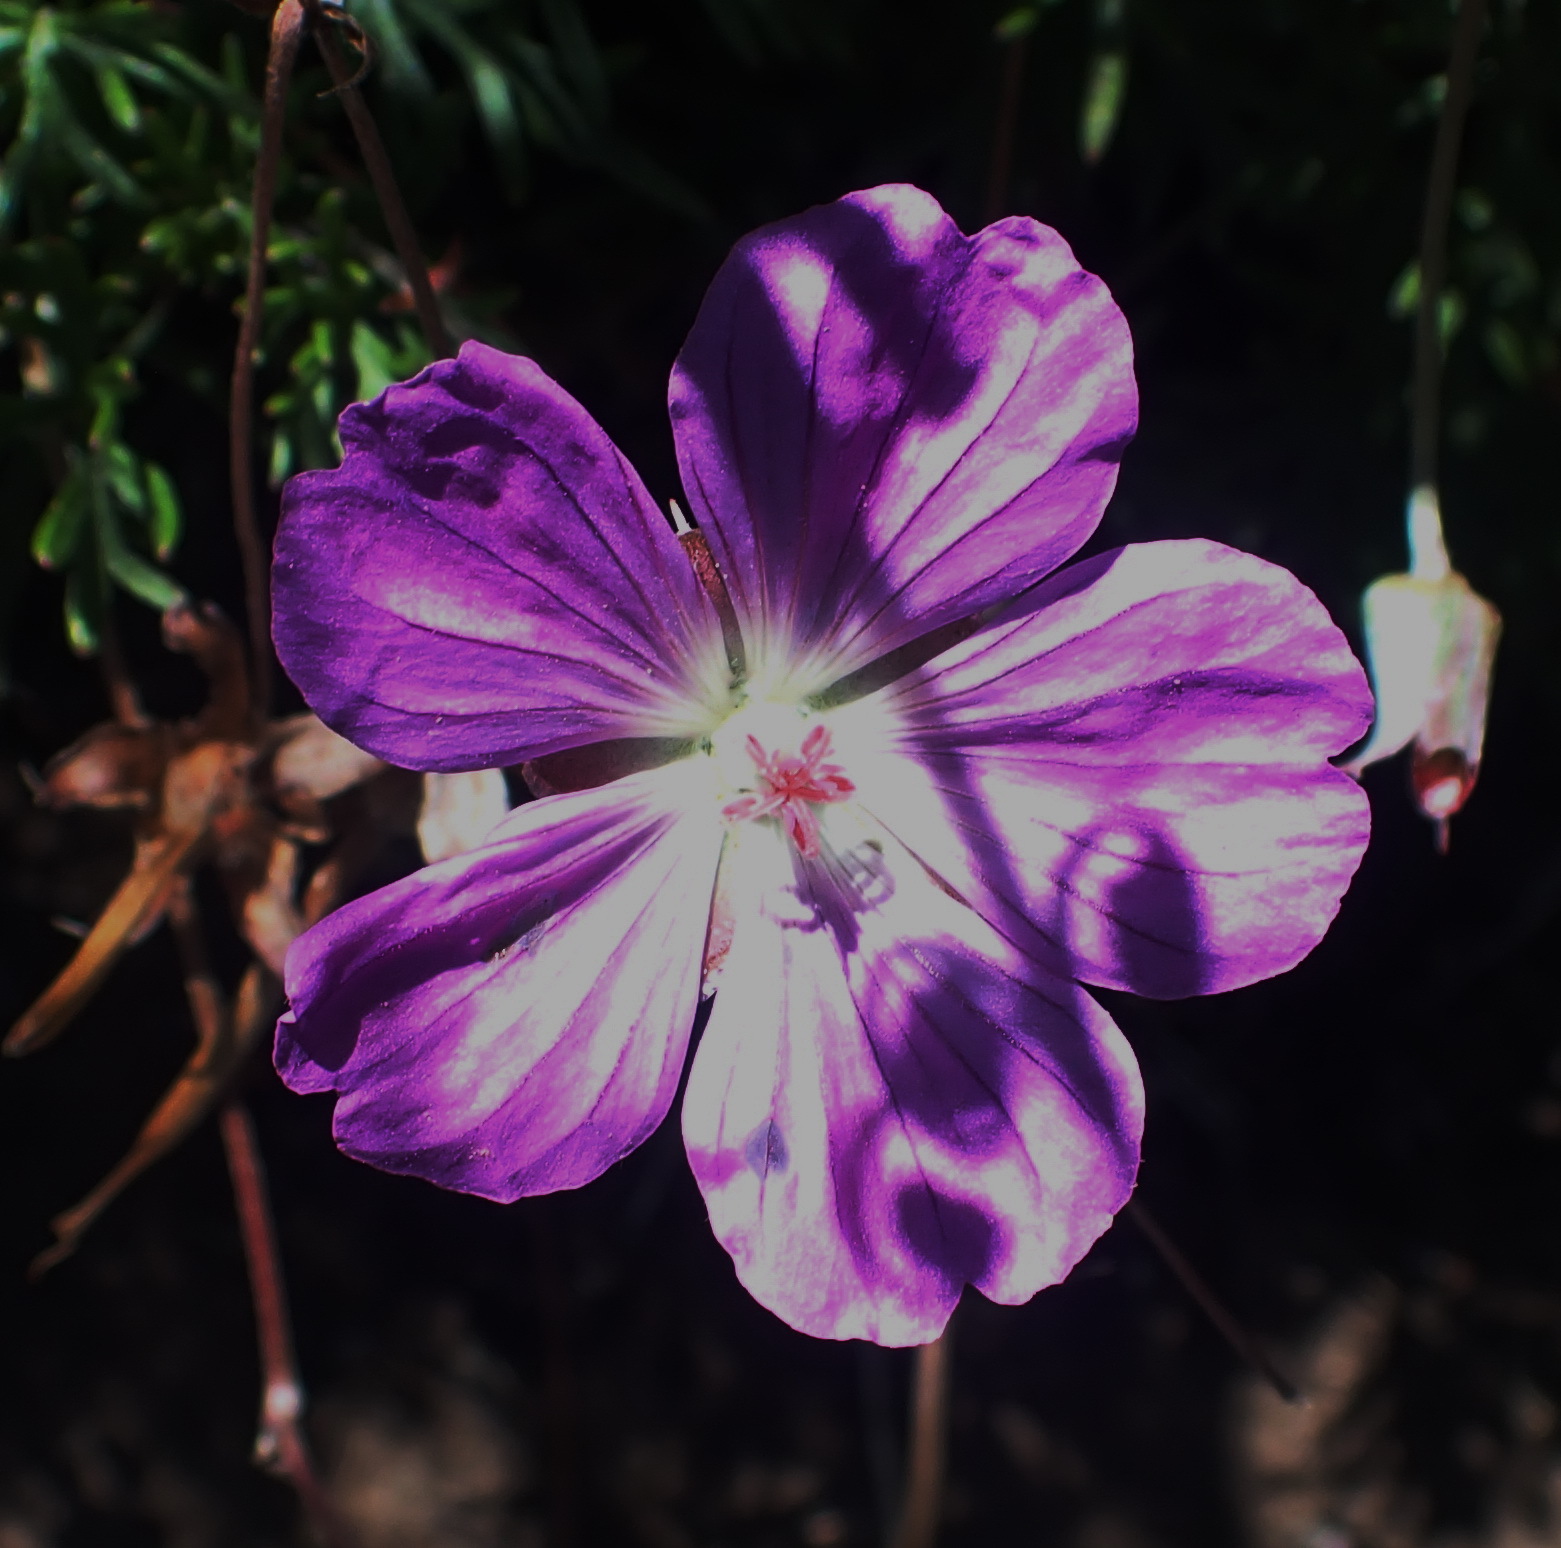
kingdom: Plantae
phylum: Tracheophyta
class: Magnoliopsida
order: Geraniales
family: Geraniaceae
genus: Geranium
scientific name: Geranium incanum
